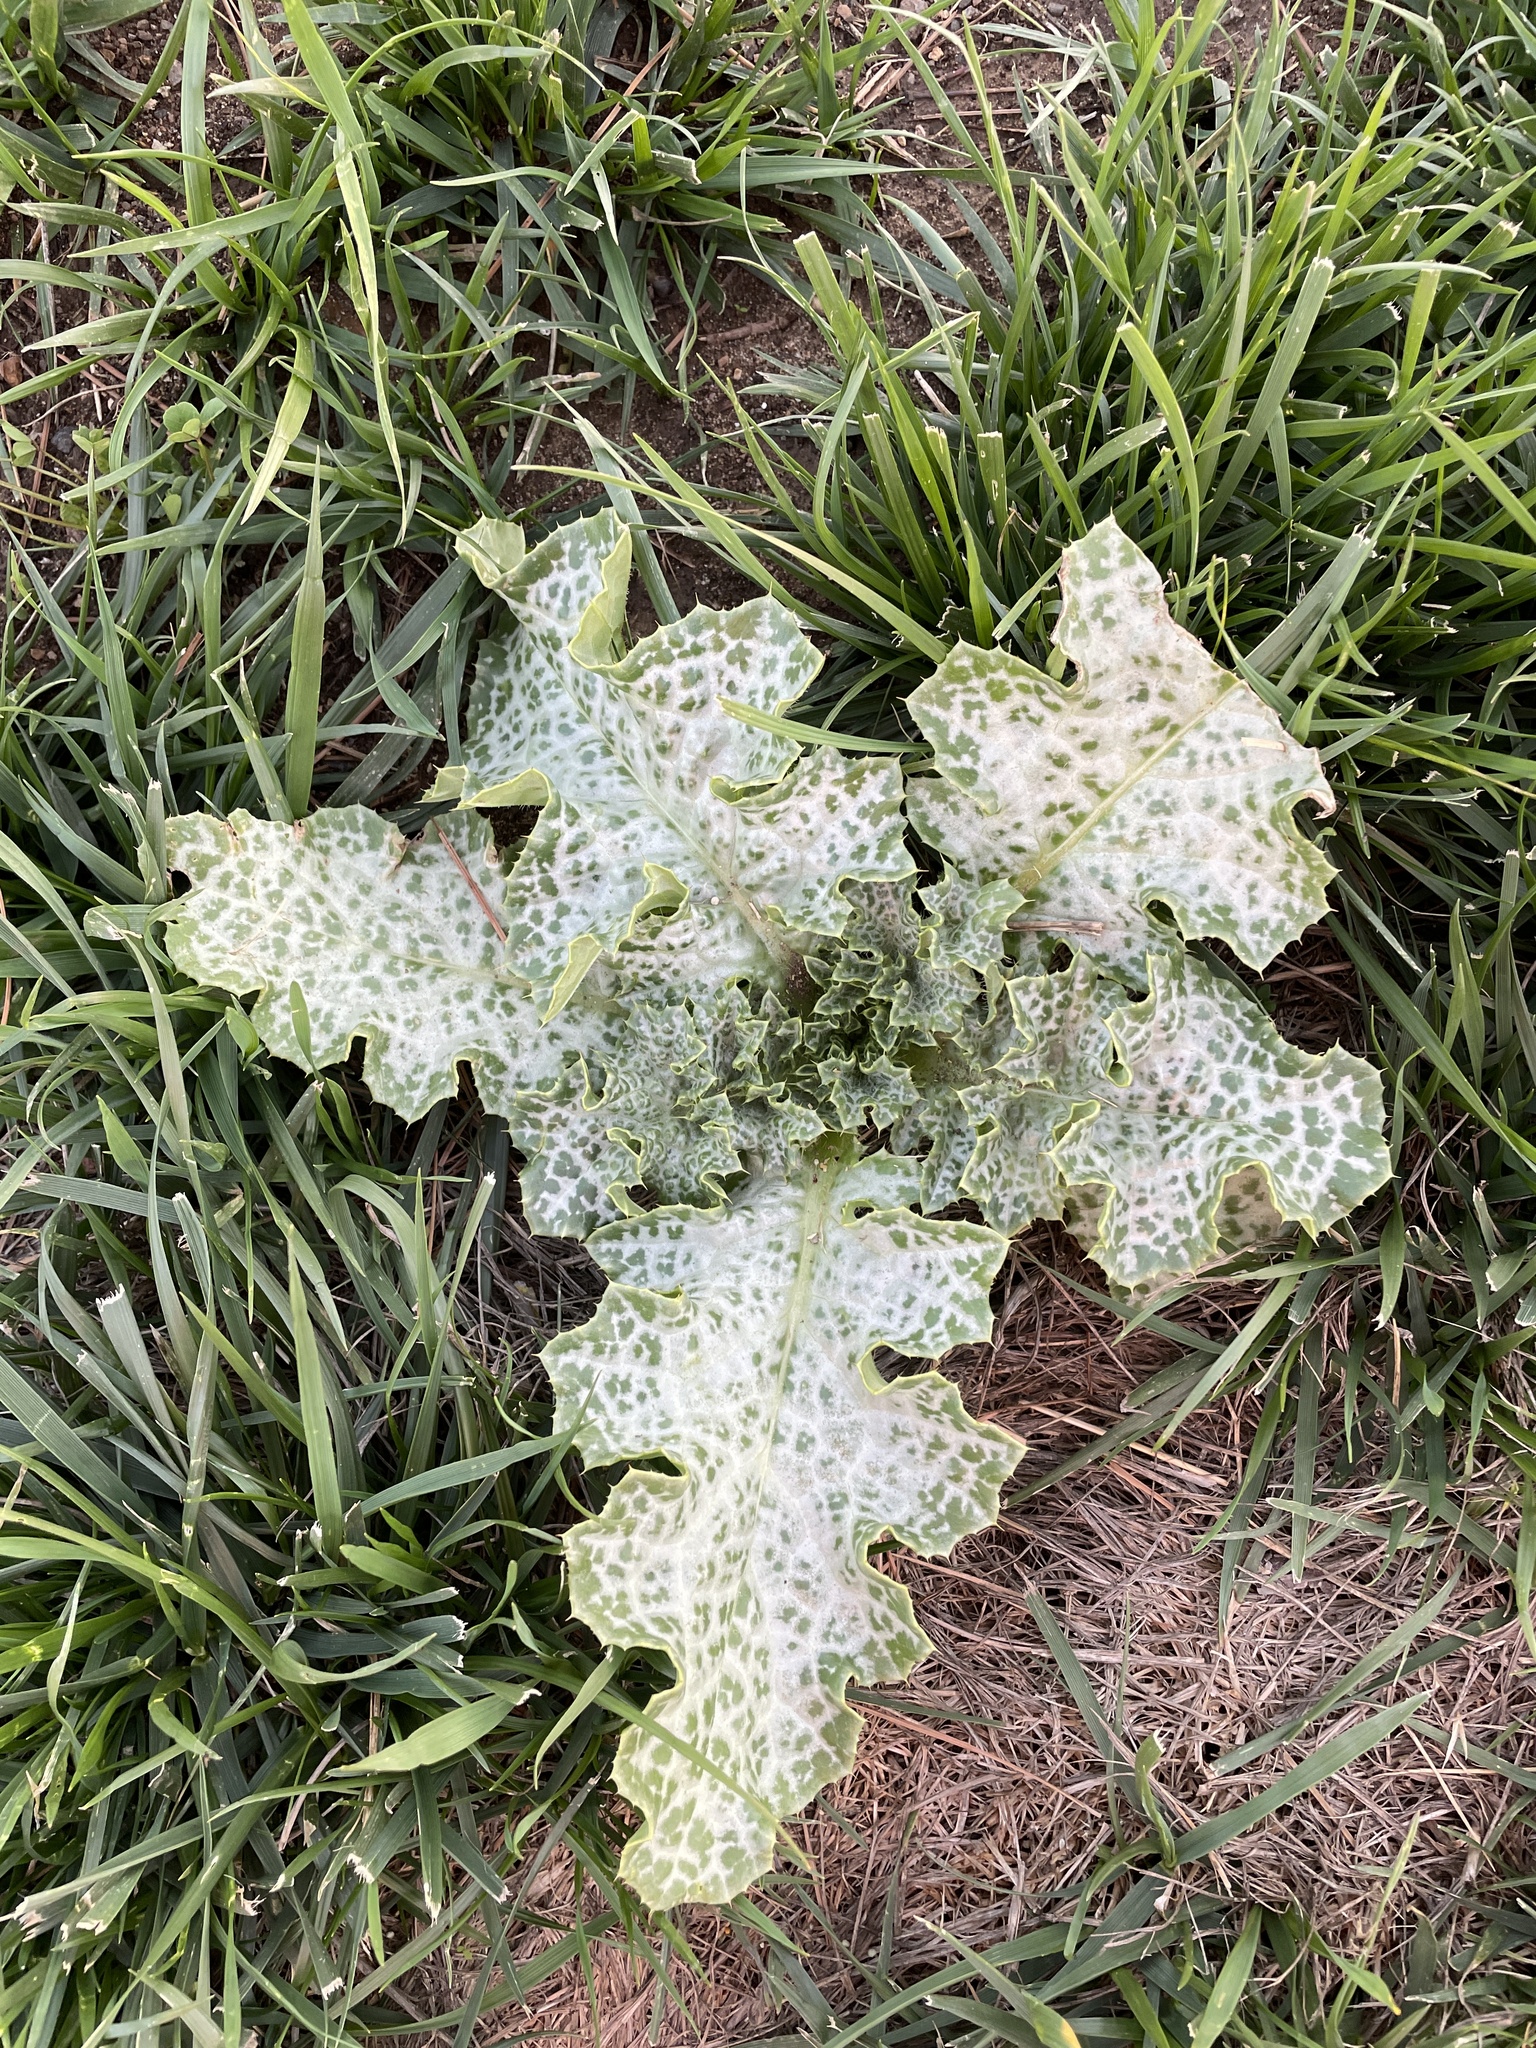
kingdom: Plantae
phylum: Tracheophyta
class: Magnoliopsida
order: Asterales
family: Asteraceae
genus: Silybum
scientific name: Silybum marianum
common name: Milk thistle
